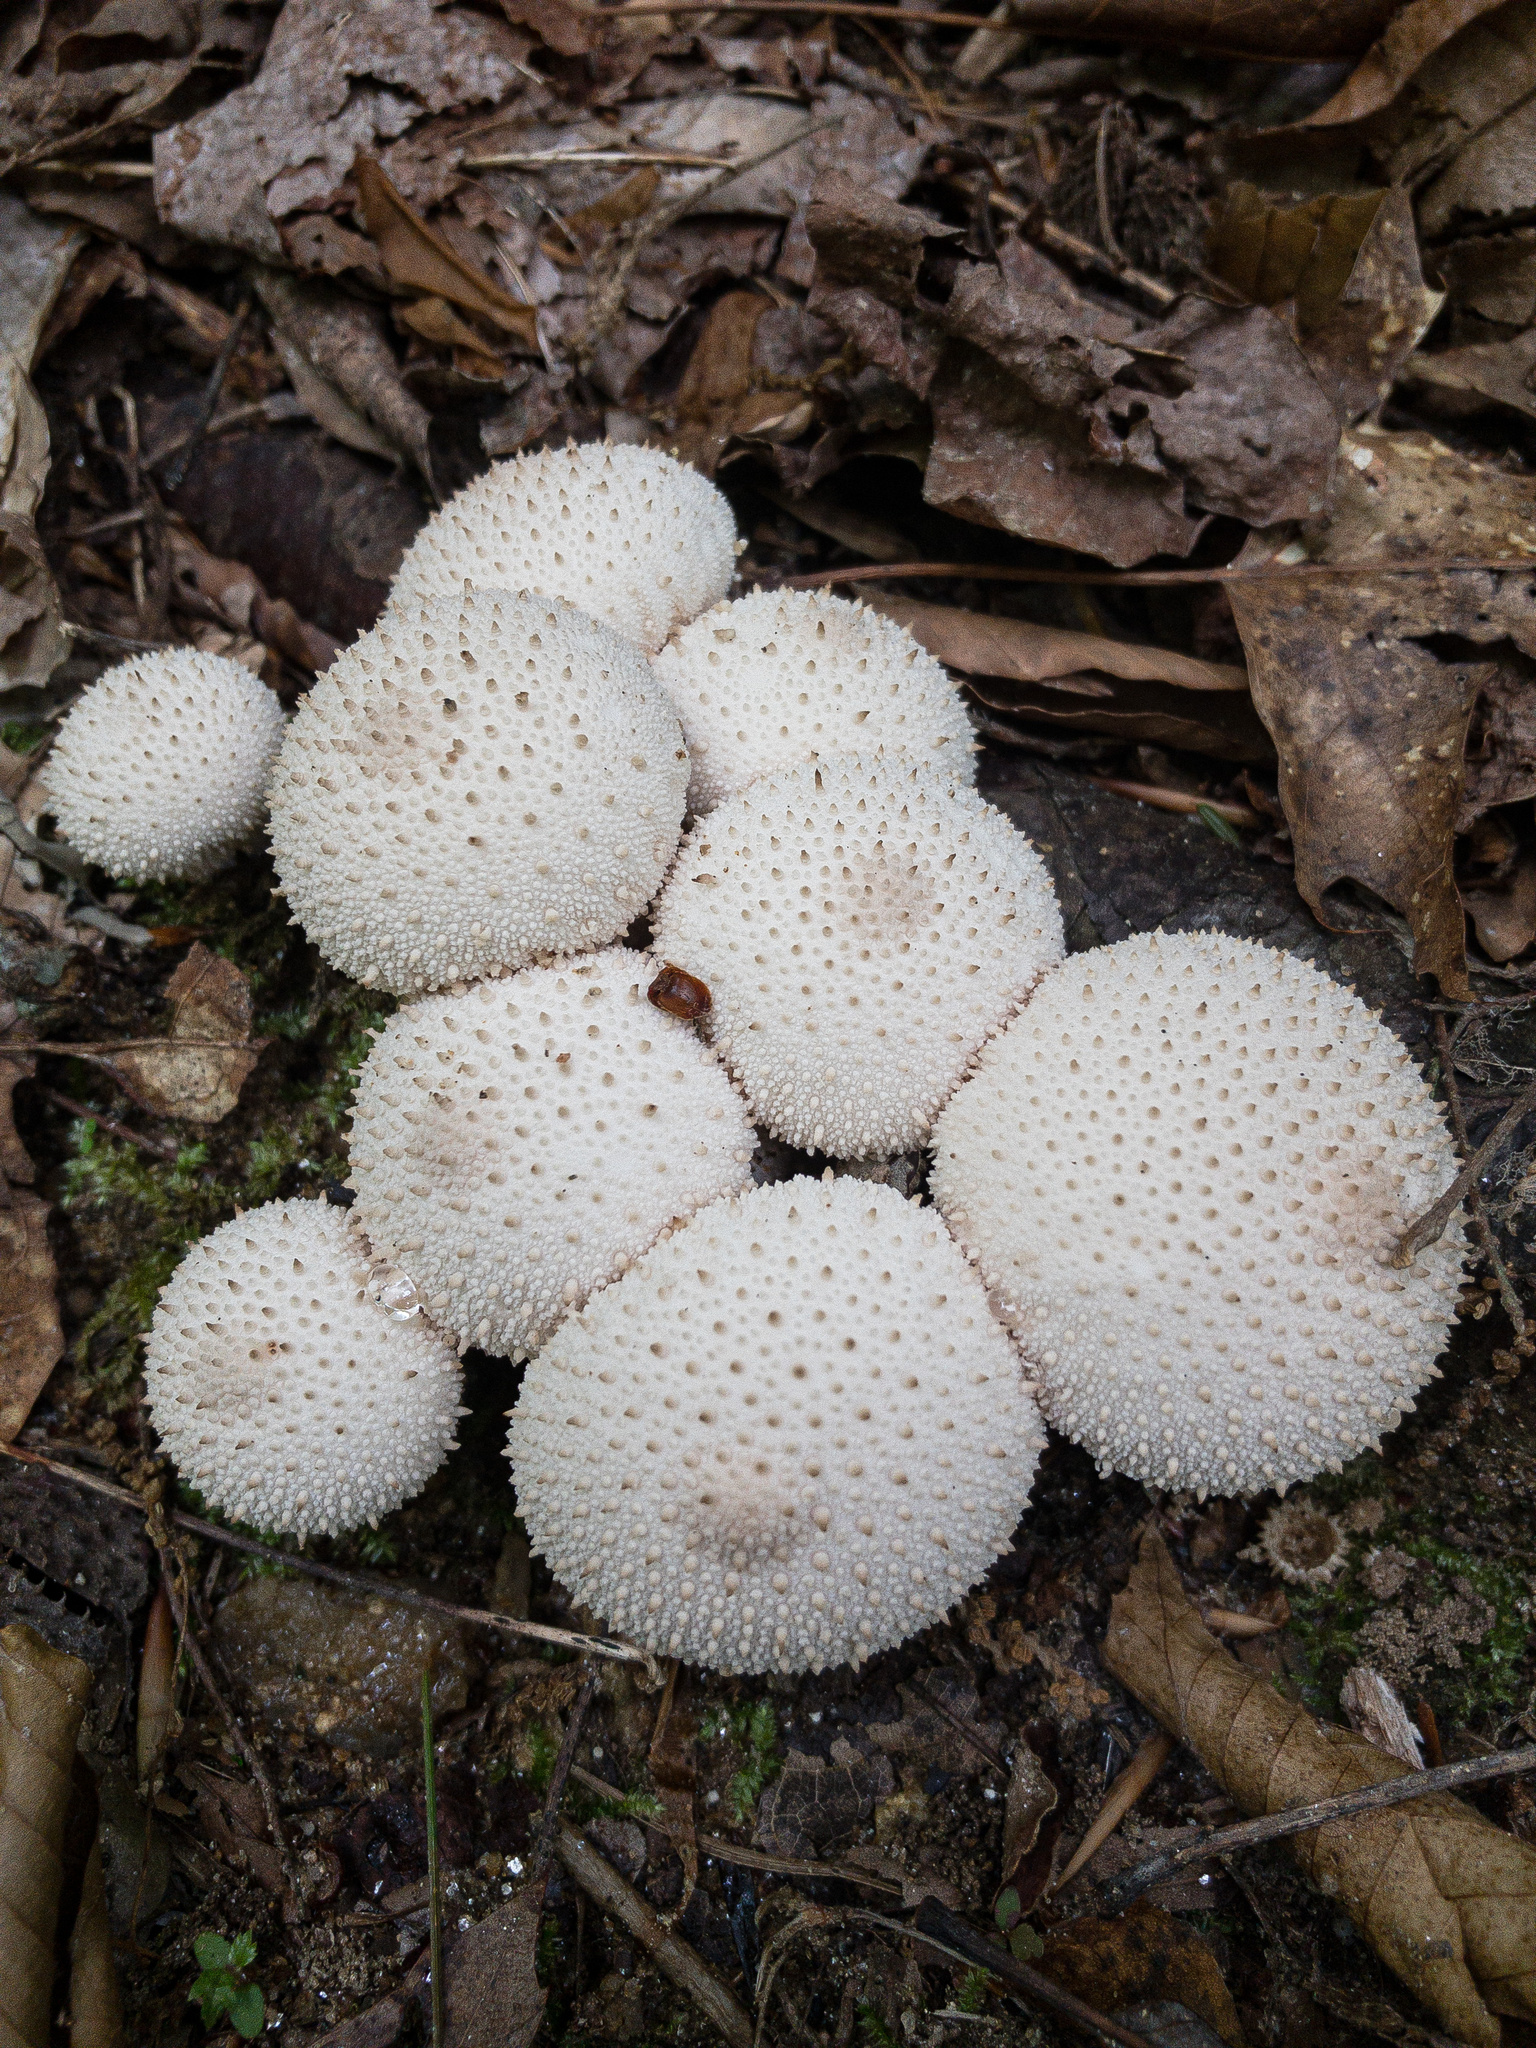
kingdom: Fungi
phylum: Basidiomycota
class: Agaricomycetes
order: Agaricales
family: Lycoperdaceae
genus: Lycoperdon
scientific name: Lycoperdon perlatum
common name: Common puffball
